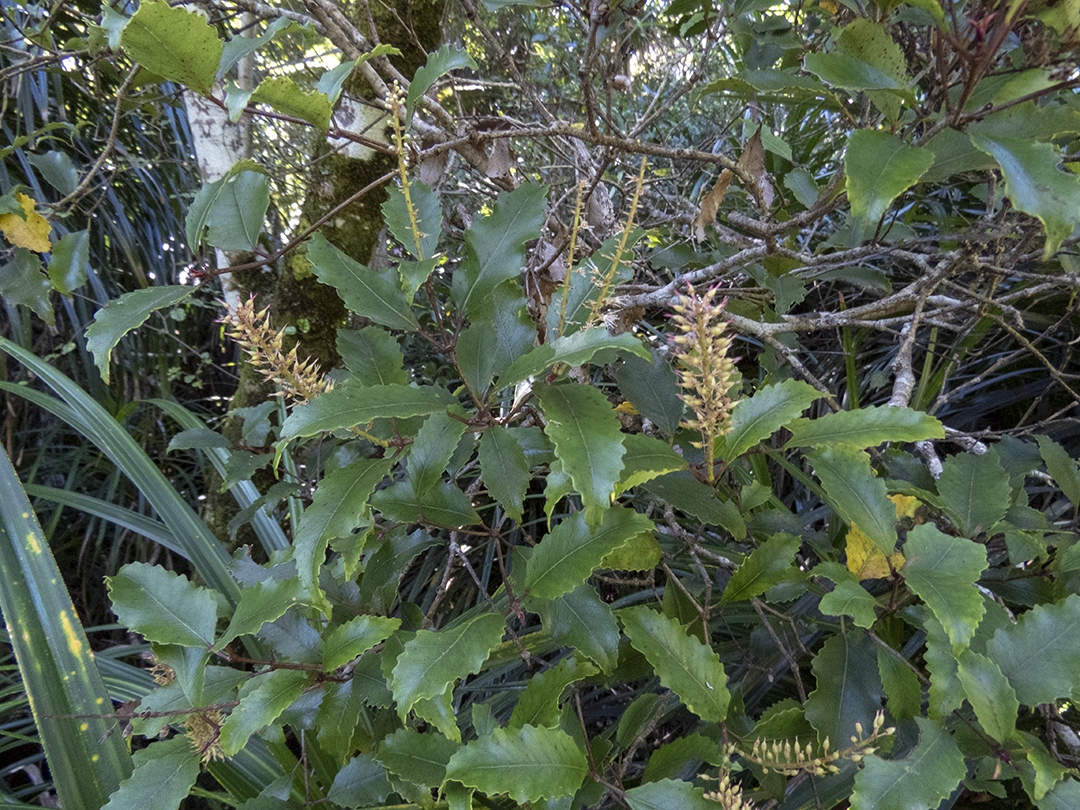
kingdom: Plantae
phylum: Tracheophyta
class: Magnoliopsida
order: Oxalidales
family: Cunoniaceae
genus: Pterophylla
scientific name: Pterophylla racemosa
